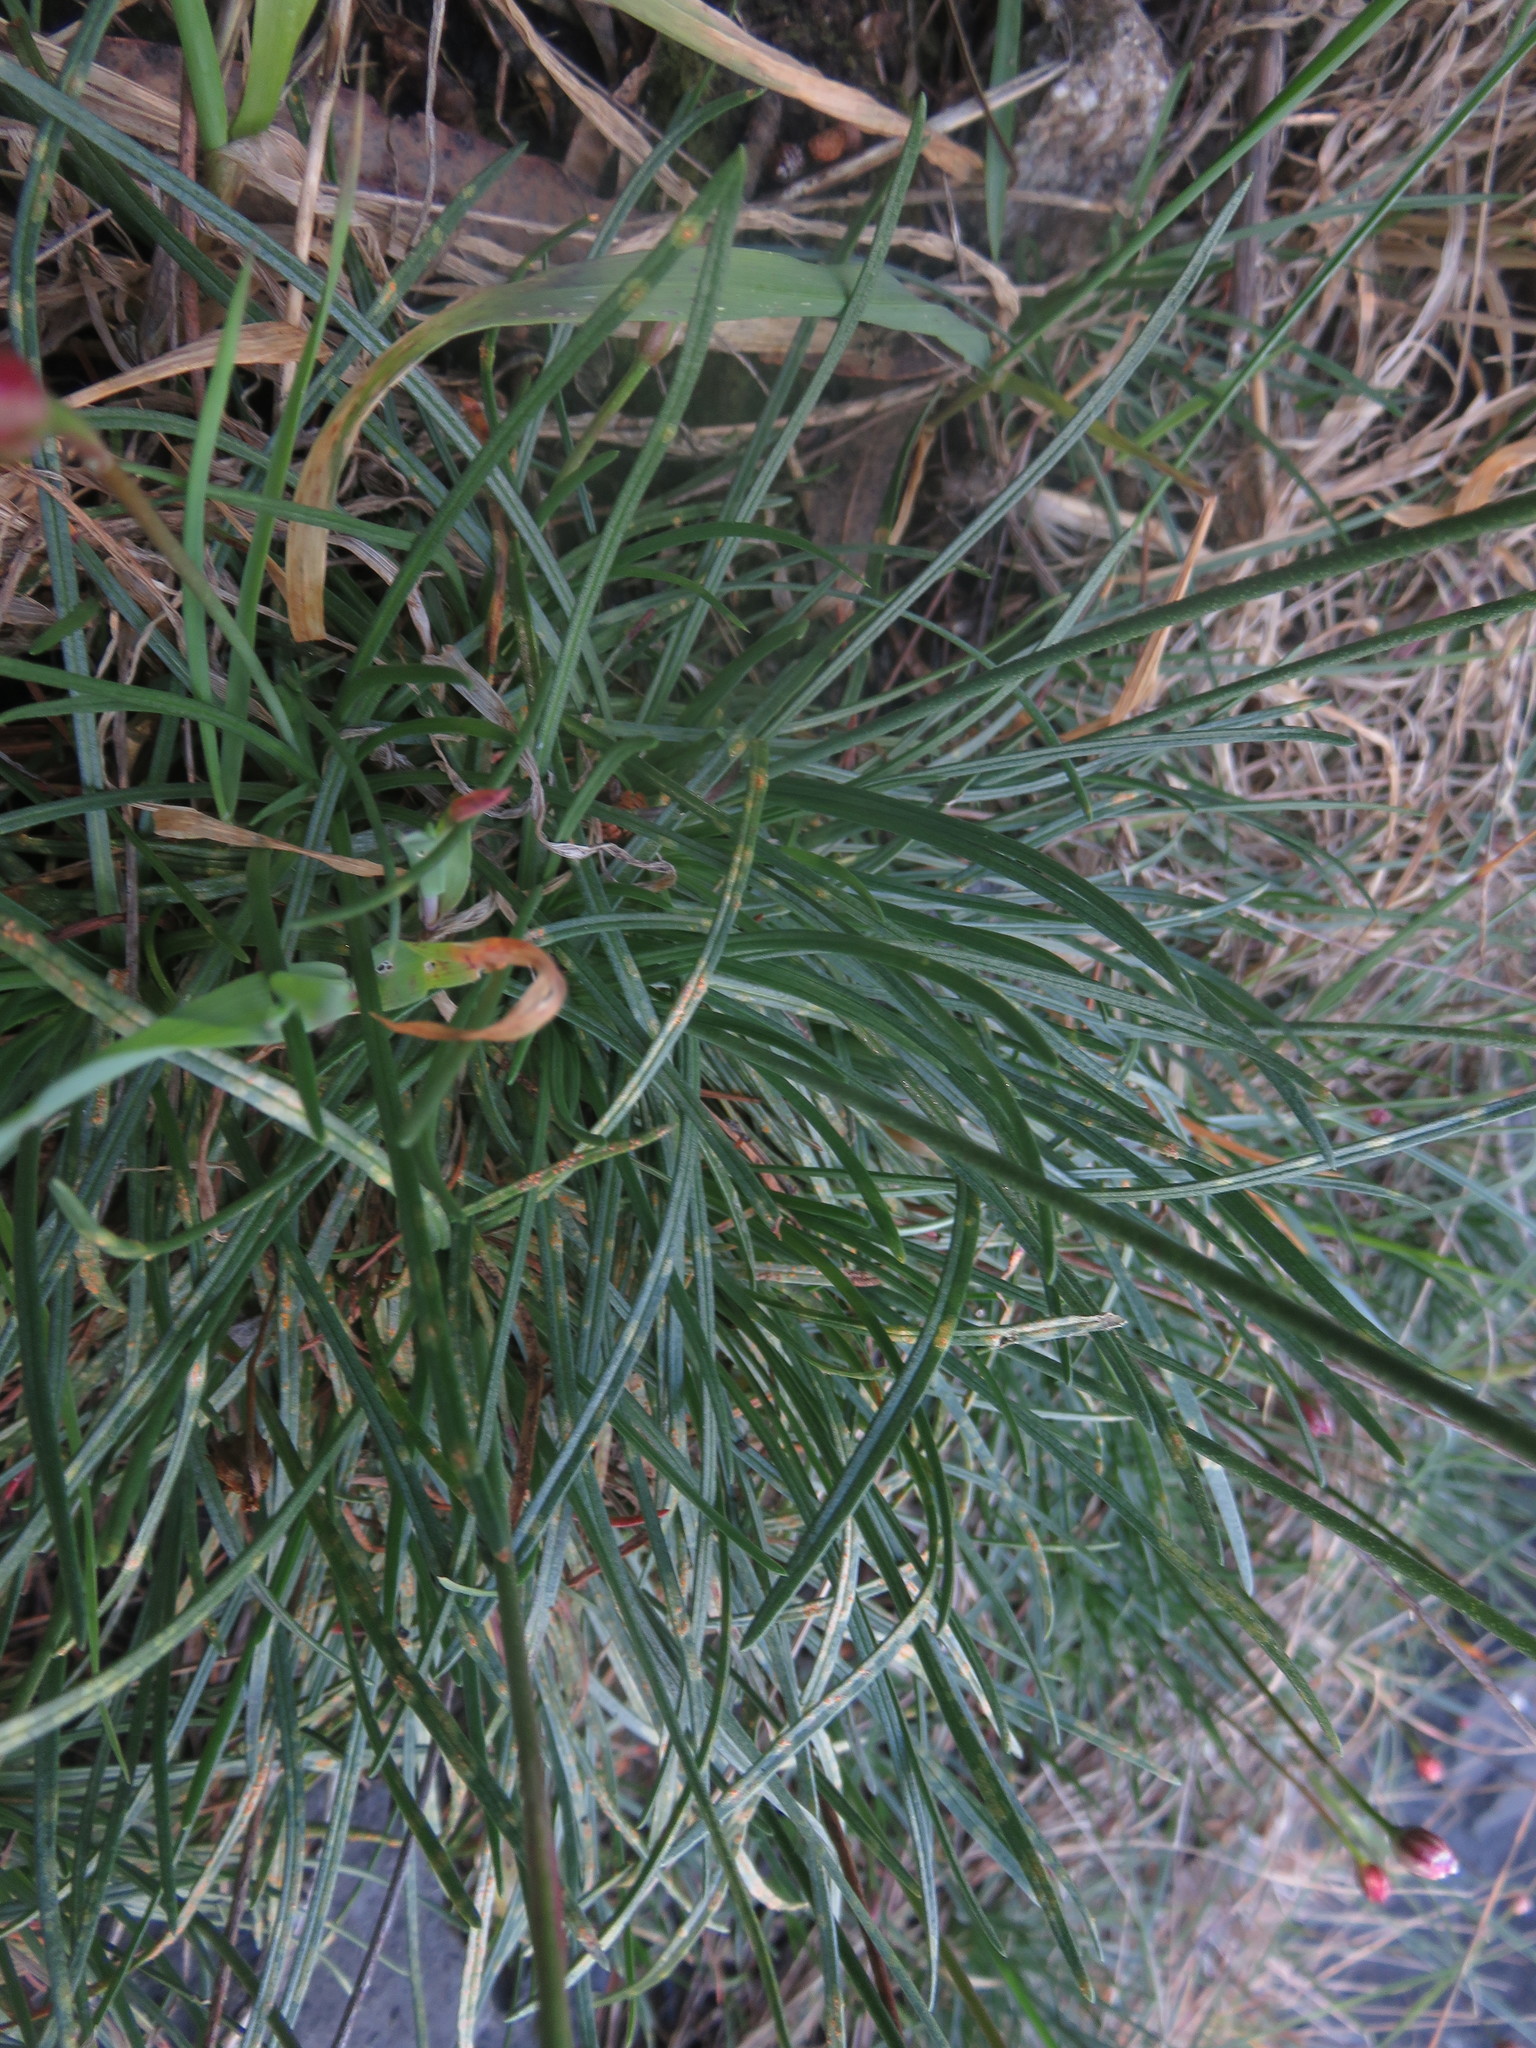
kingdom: Plantae
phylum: Tracheophyta
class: Magnoliopsida
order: Caryophyllales
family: Plumbaginaceae
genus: Armeria
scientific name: Armeria curvifolia
